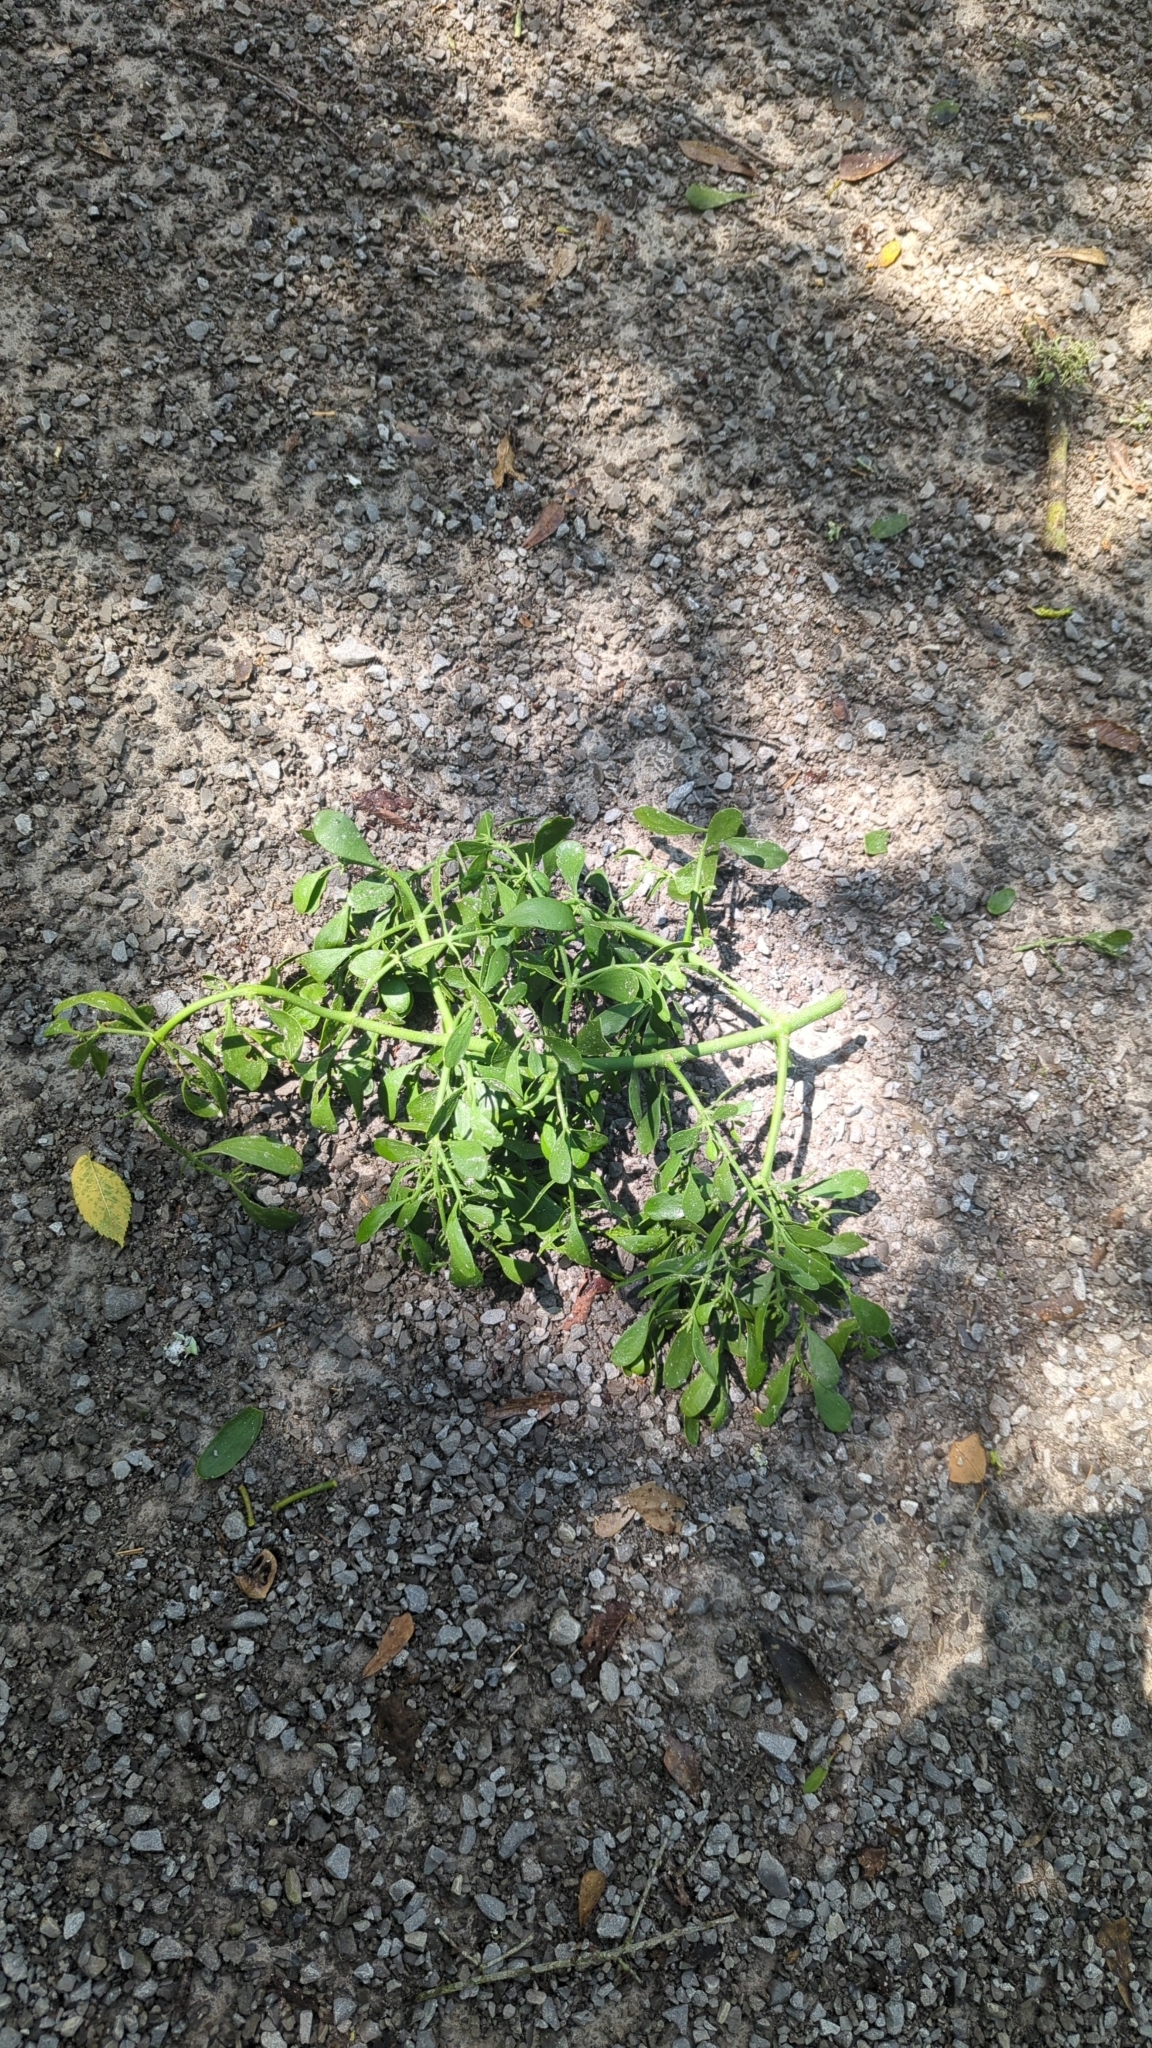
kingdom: Plantae
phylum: Tracheophyta
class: Magnoliopsida
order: Santalales
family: Viscaceae
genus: Phoradendron
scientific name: Phoradendron leucarpum
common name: Pacific mistletoe
